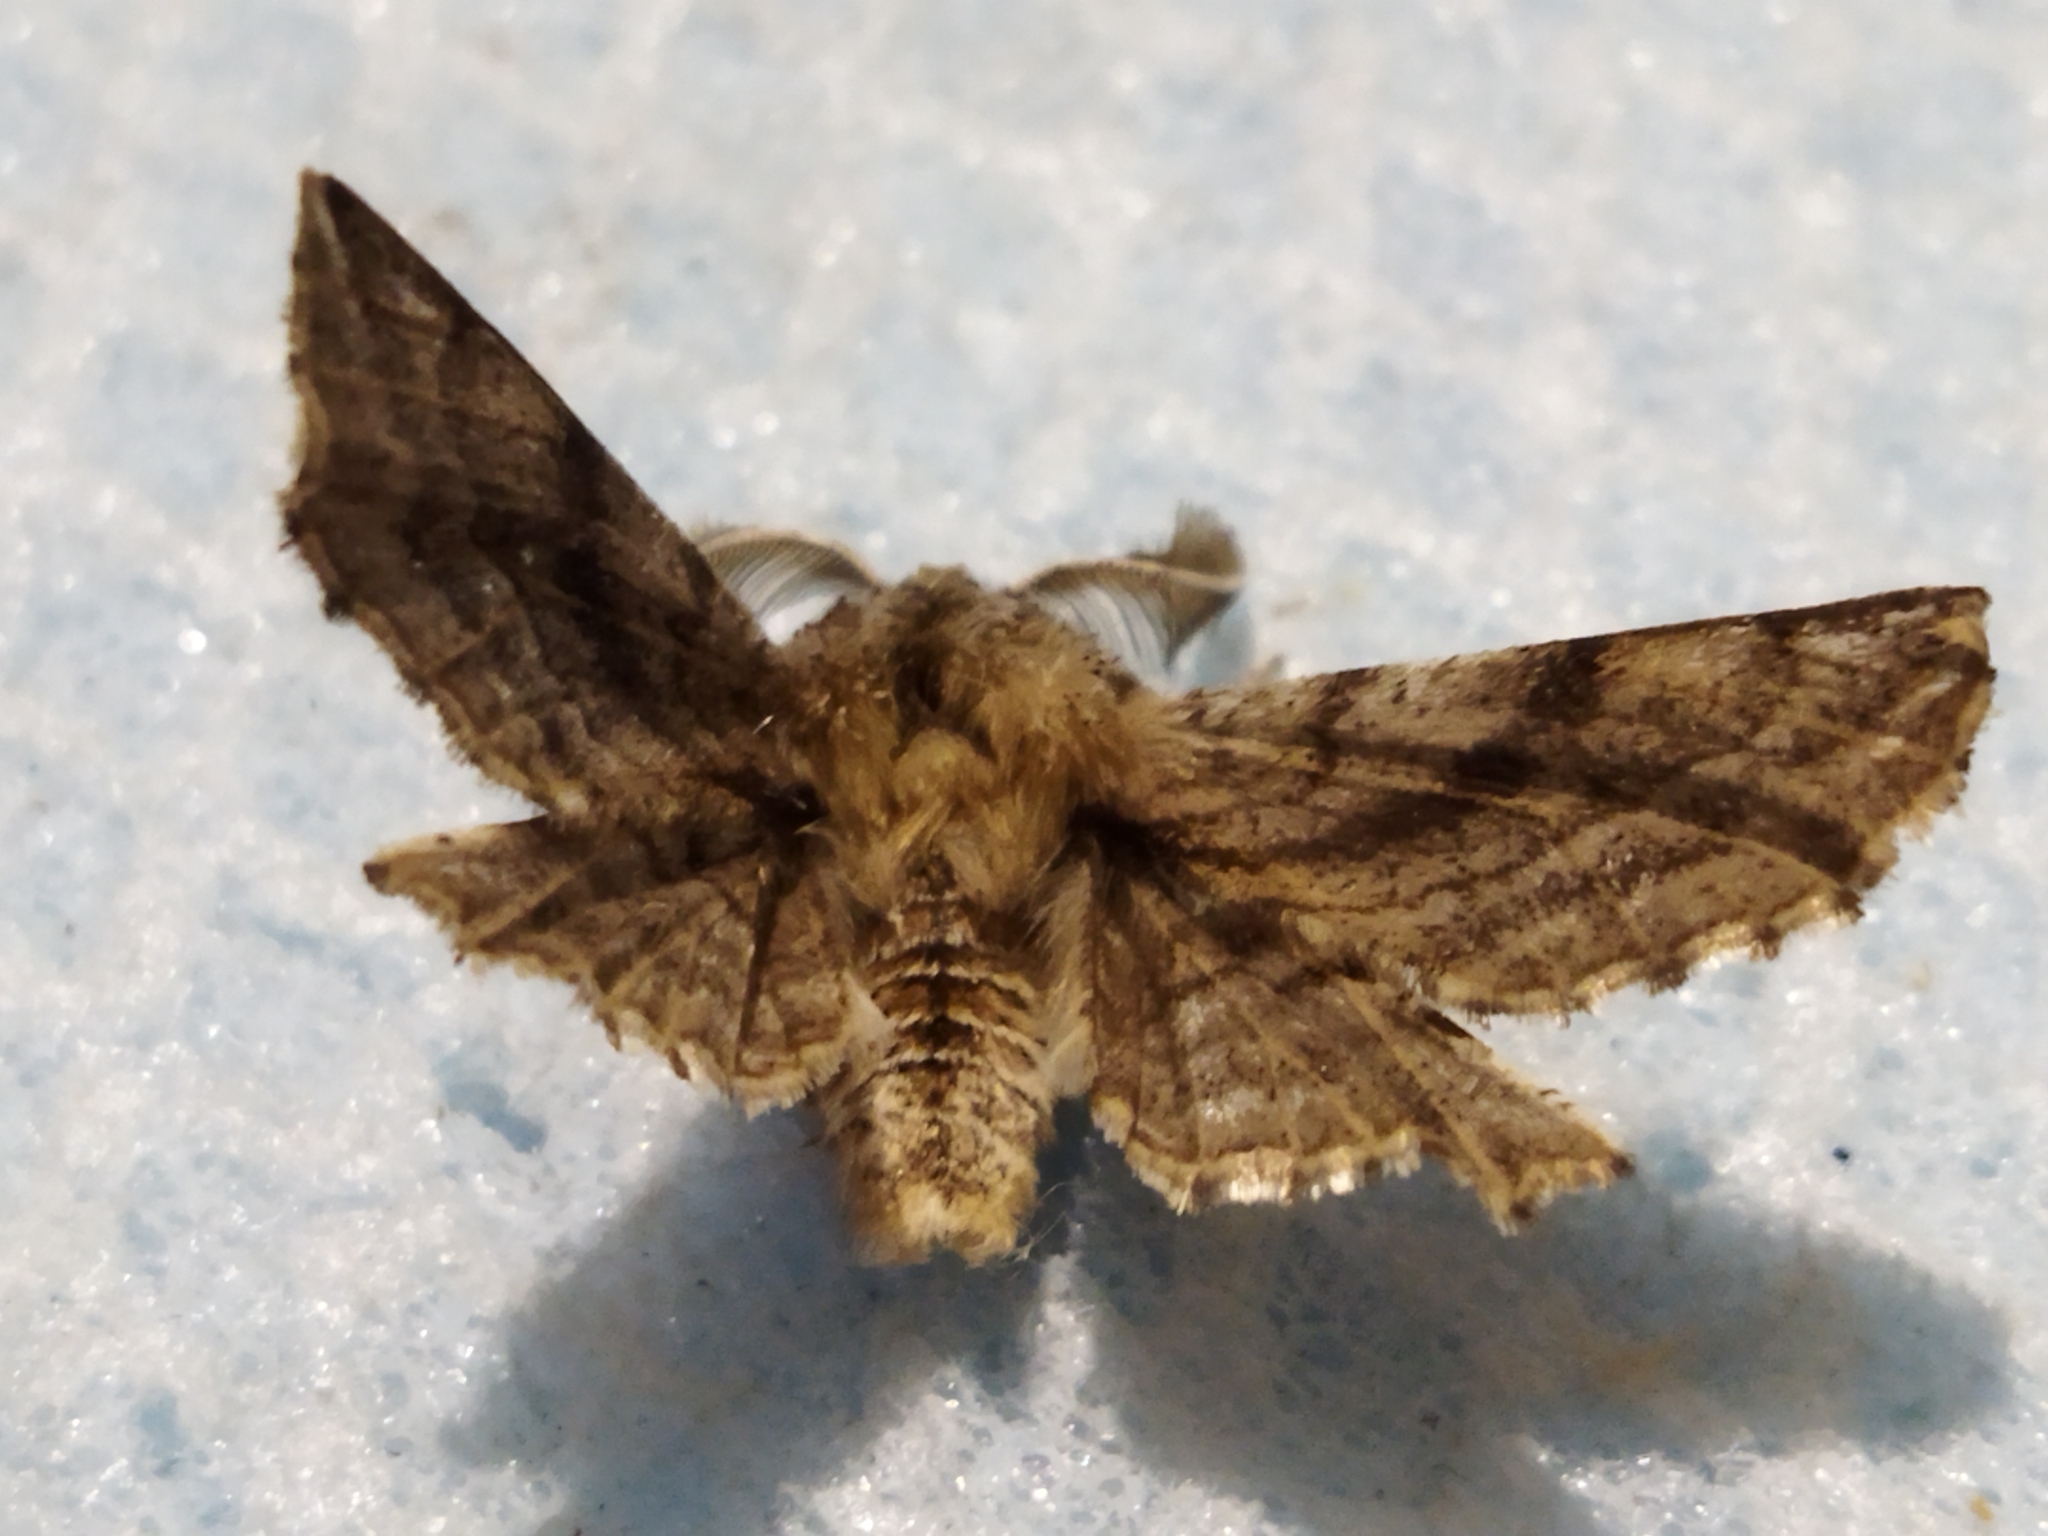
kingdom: Animalia
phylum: Arthropoda
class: Insecta
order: Lepidoptera
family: Geometridae
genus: Apochima
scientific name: Apochima flabellaria
